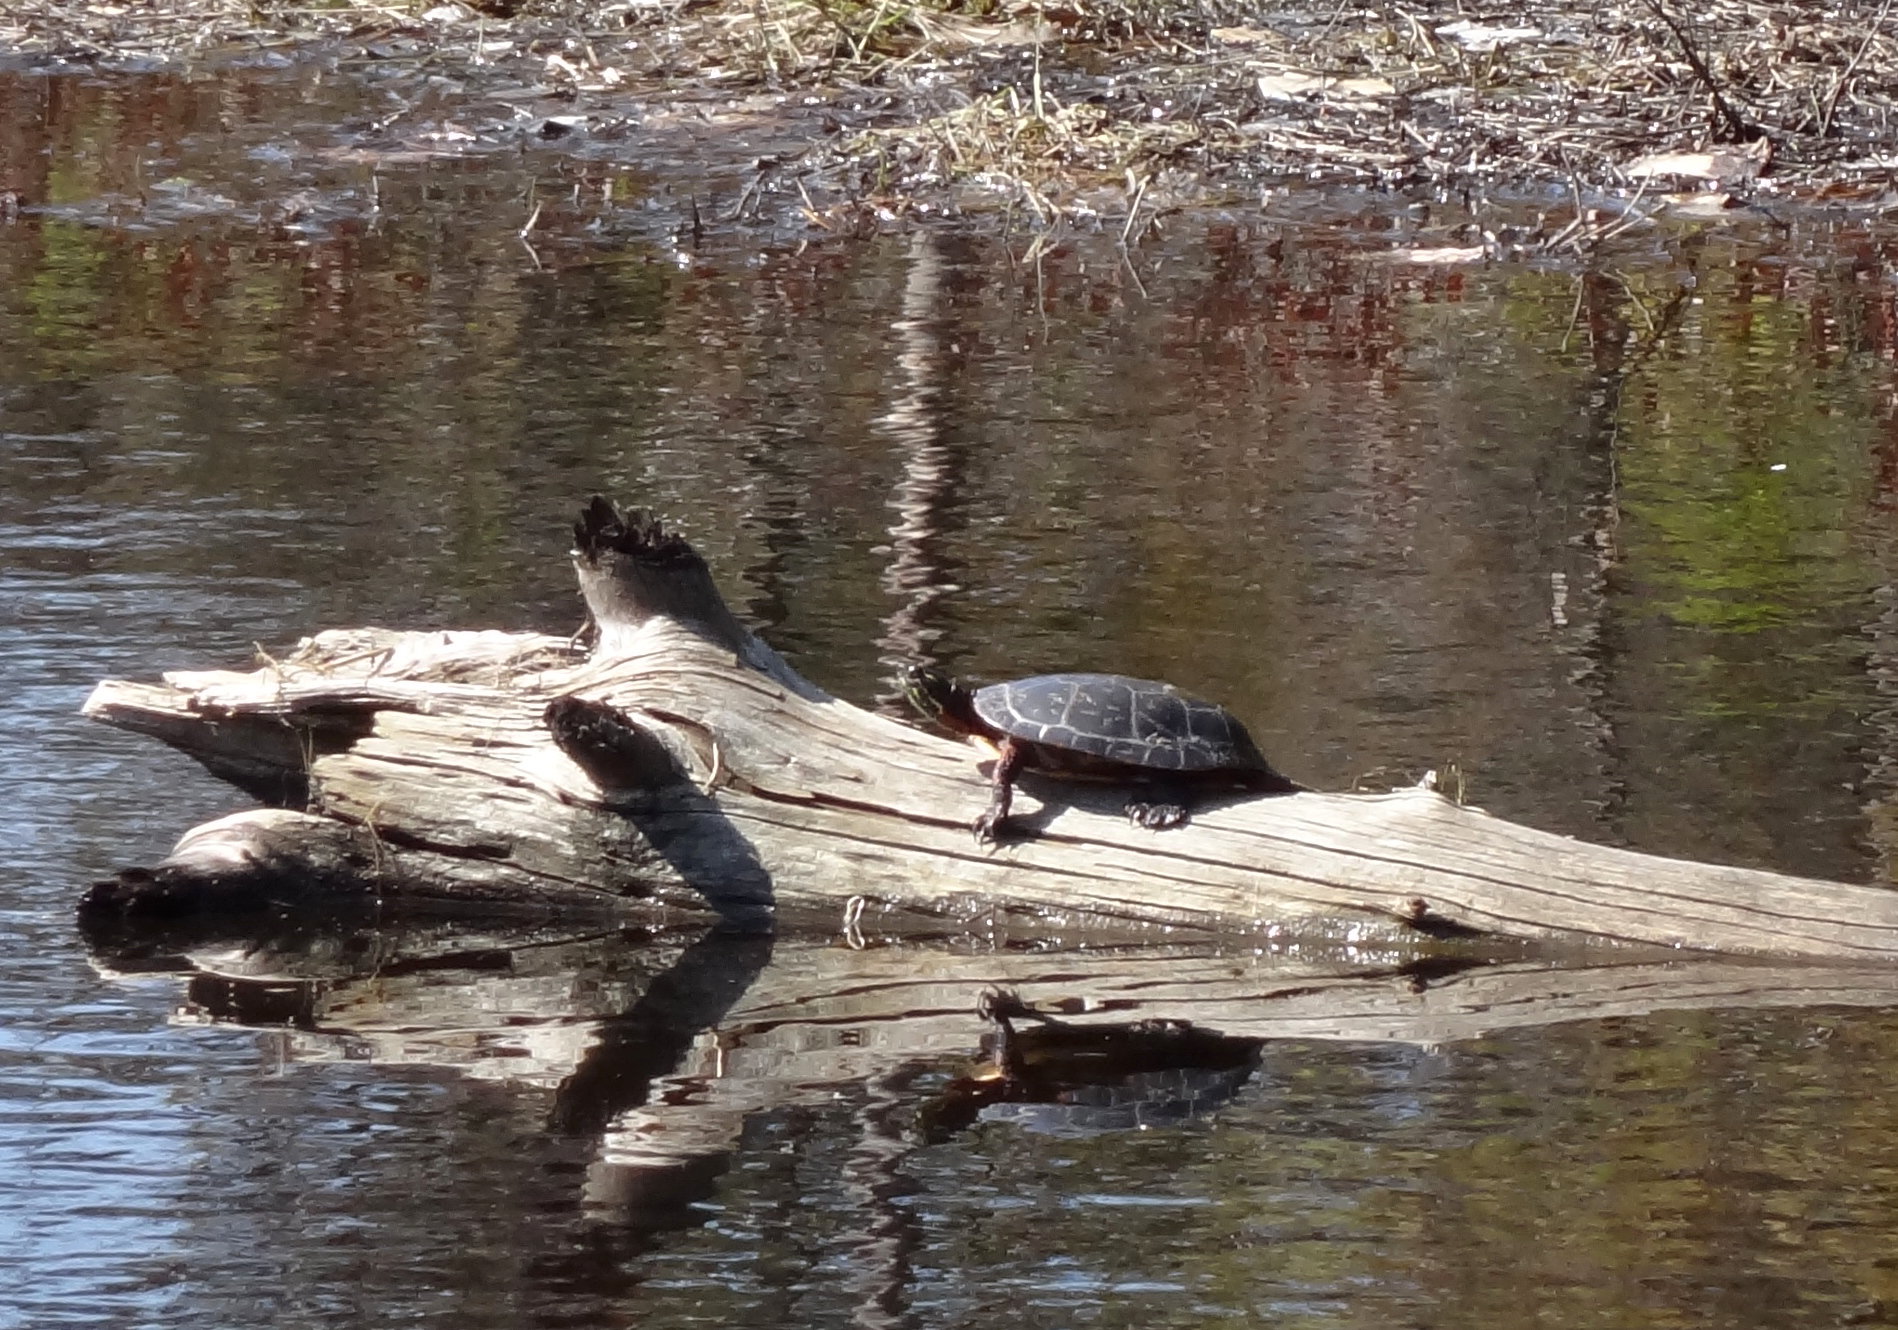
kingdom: Animalia
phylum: Chordata
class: Testudines
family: Emydidae
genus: Chrysemys
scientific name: Chrysemys picta
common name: Painted turtle
